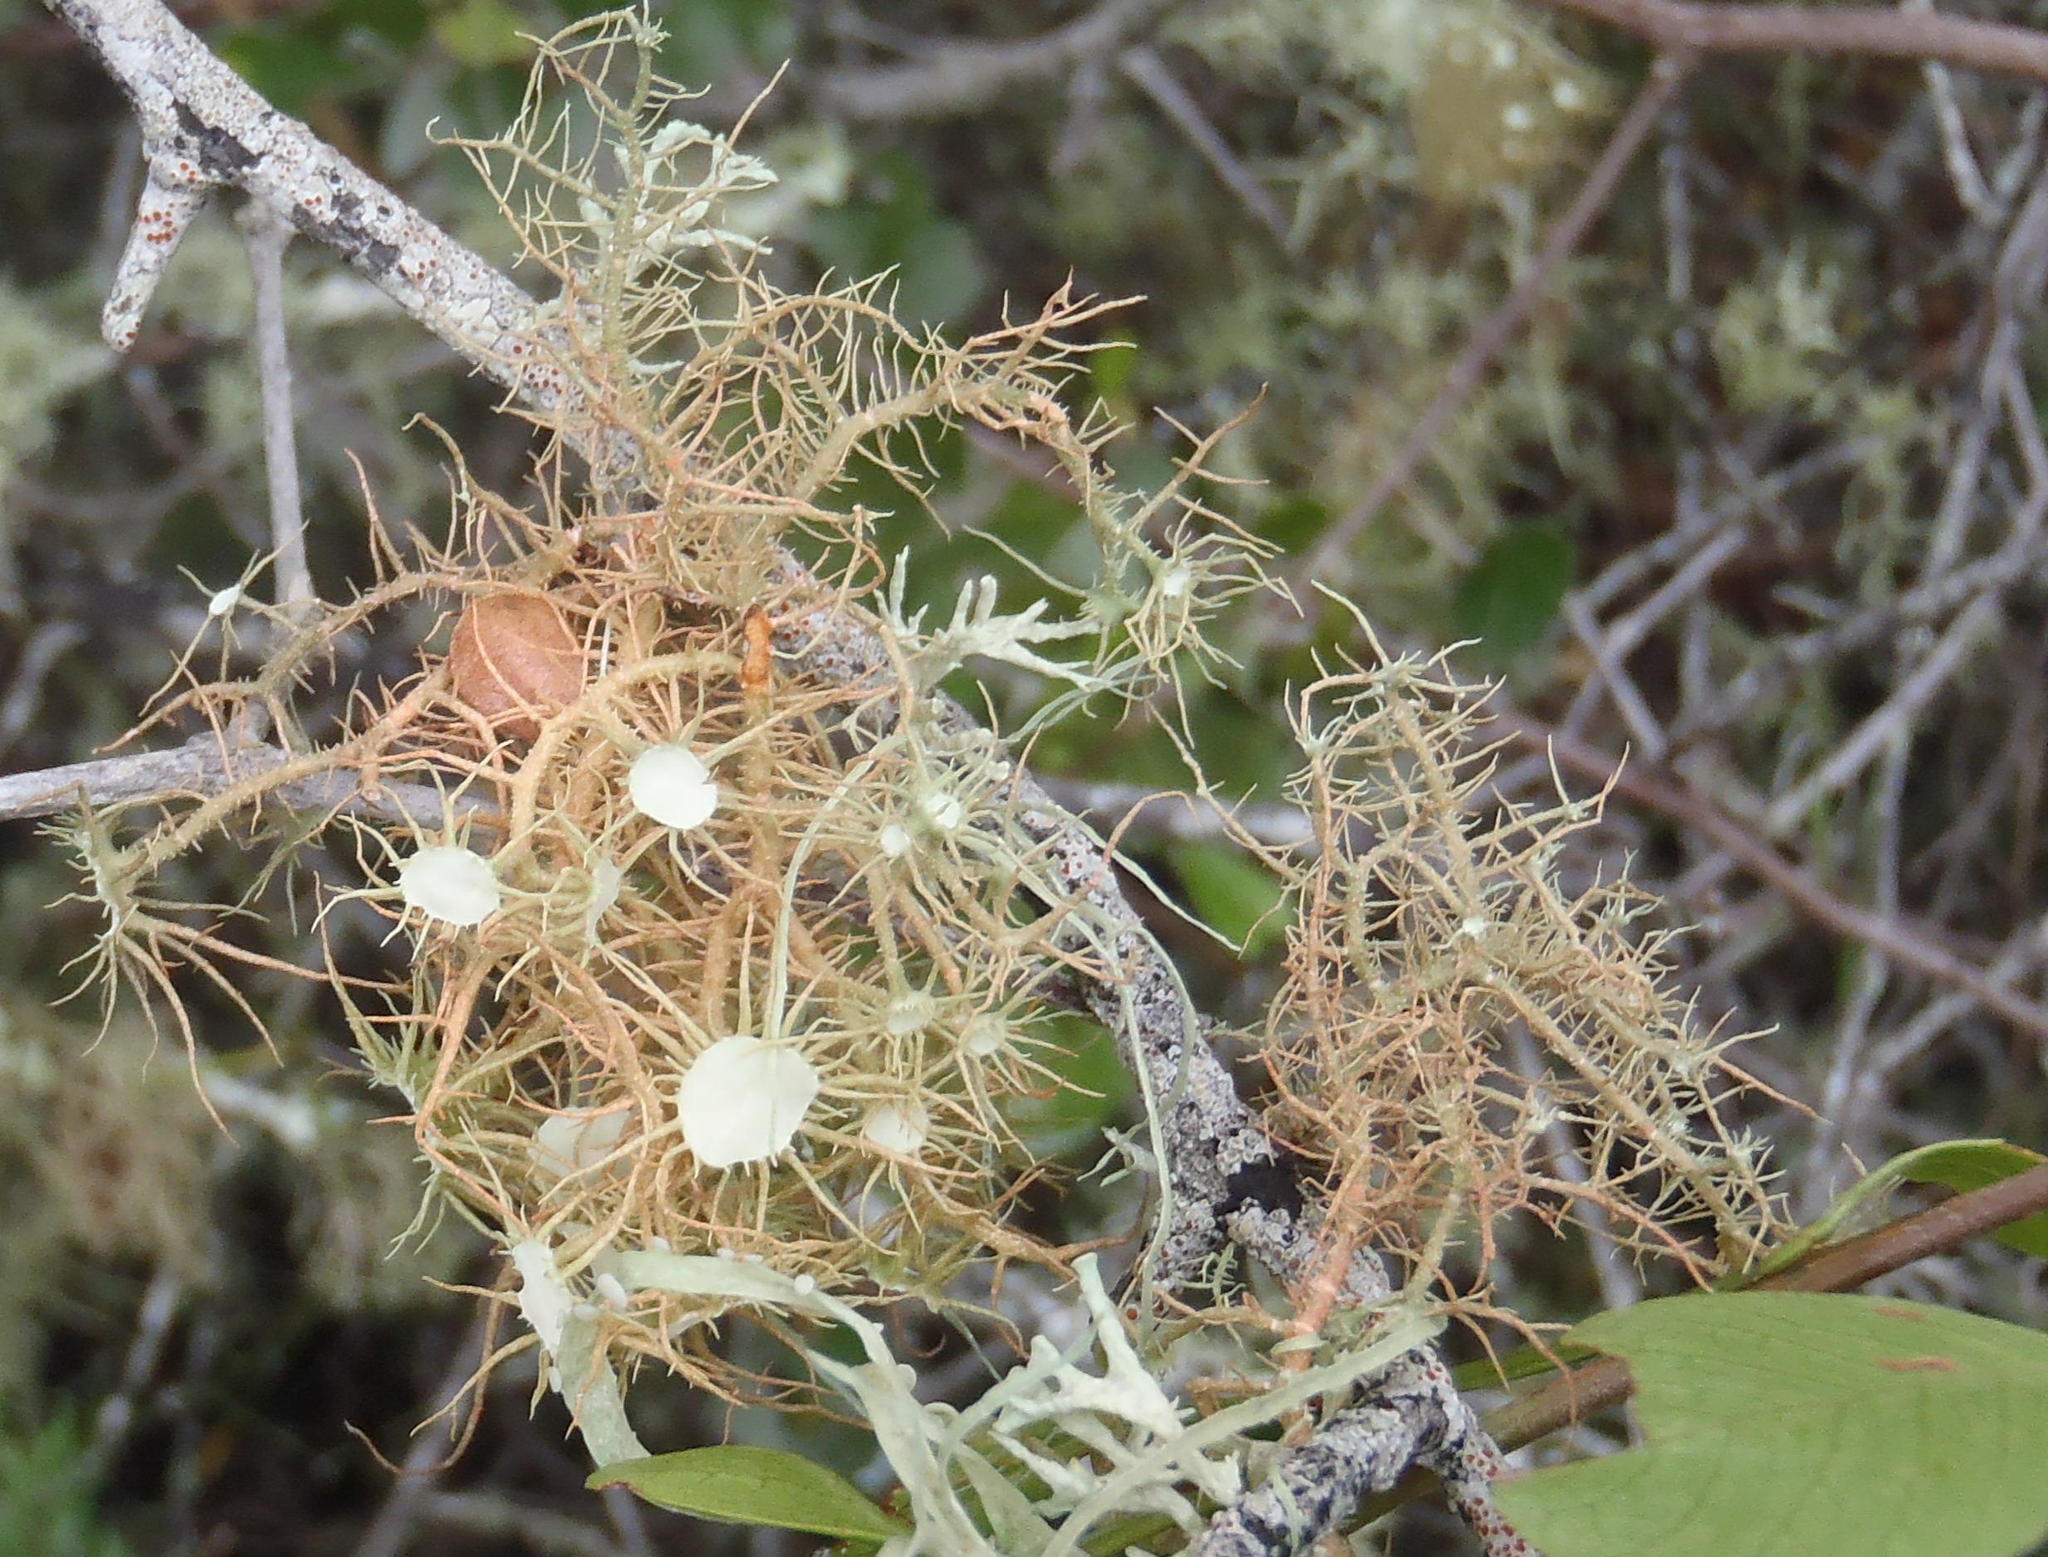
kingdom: Fungi
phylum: Ascomycota
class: Lecanoromycetes
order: Lecanorales
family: Parmeliaceae
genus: Usnea
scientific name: Usnea steineri
